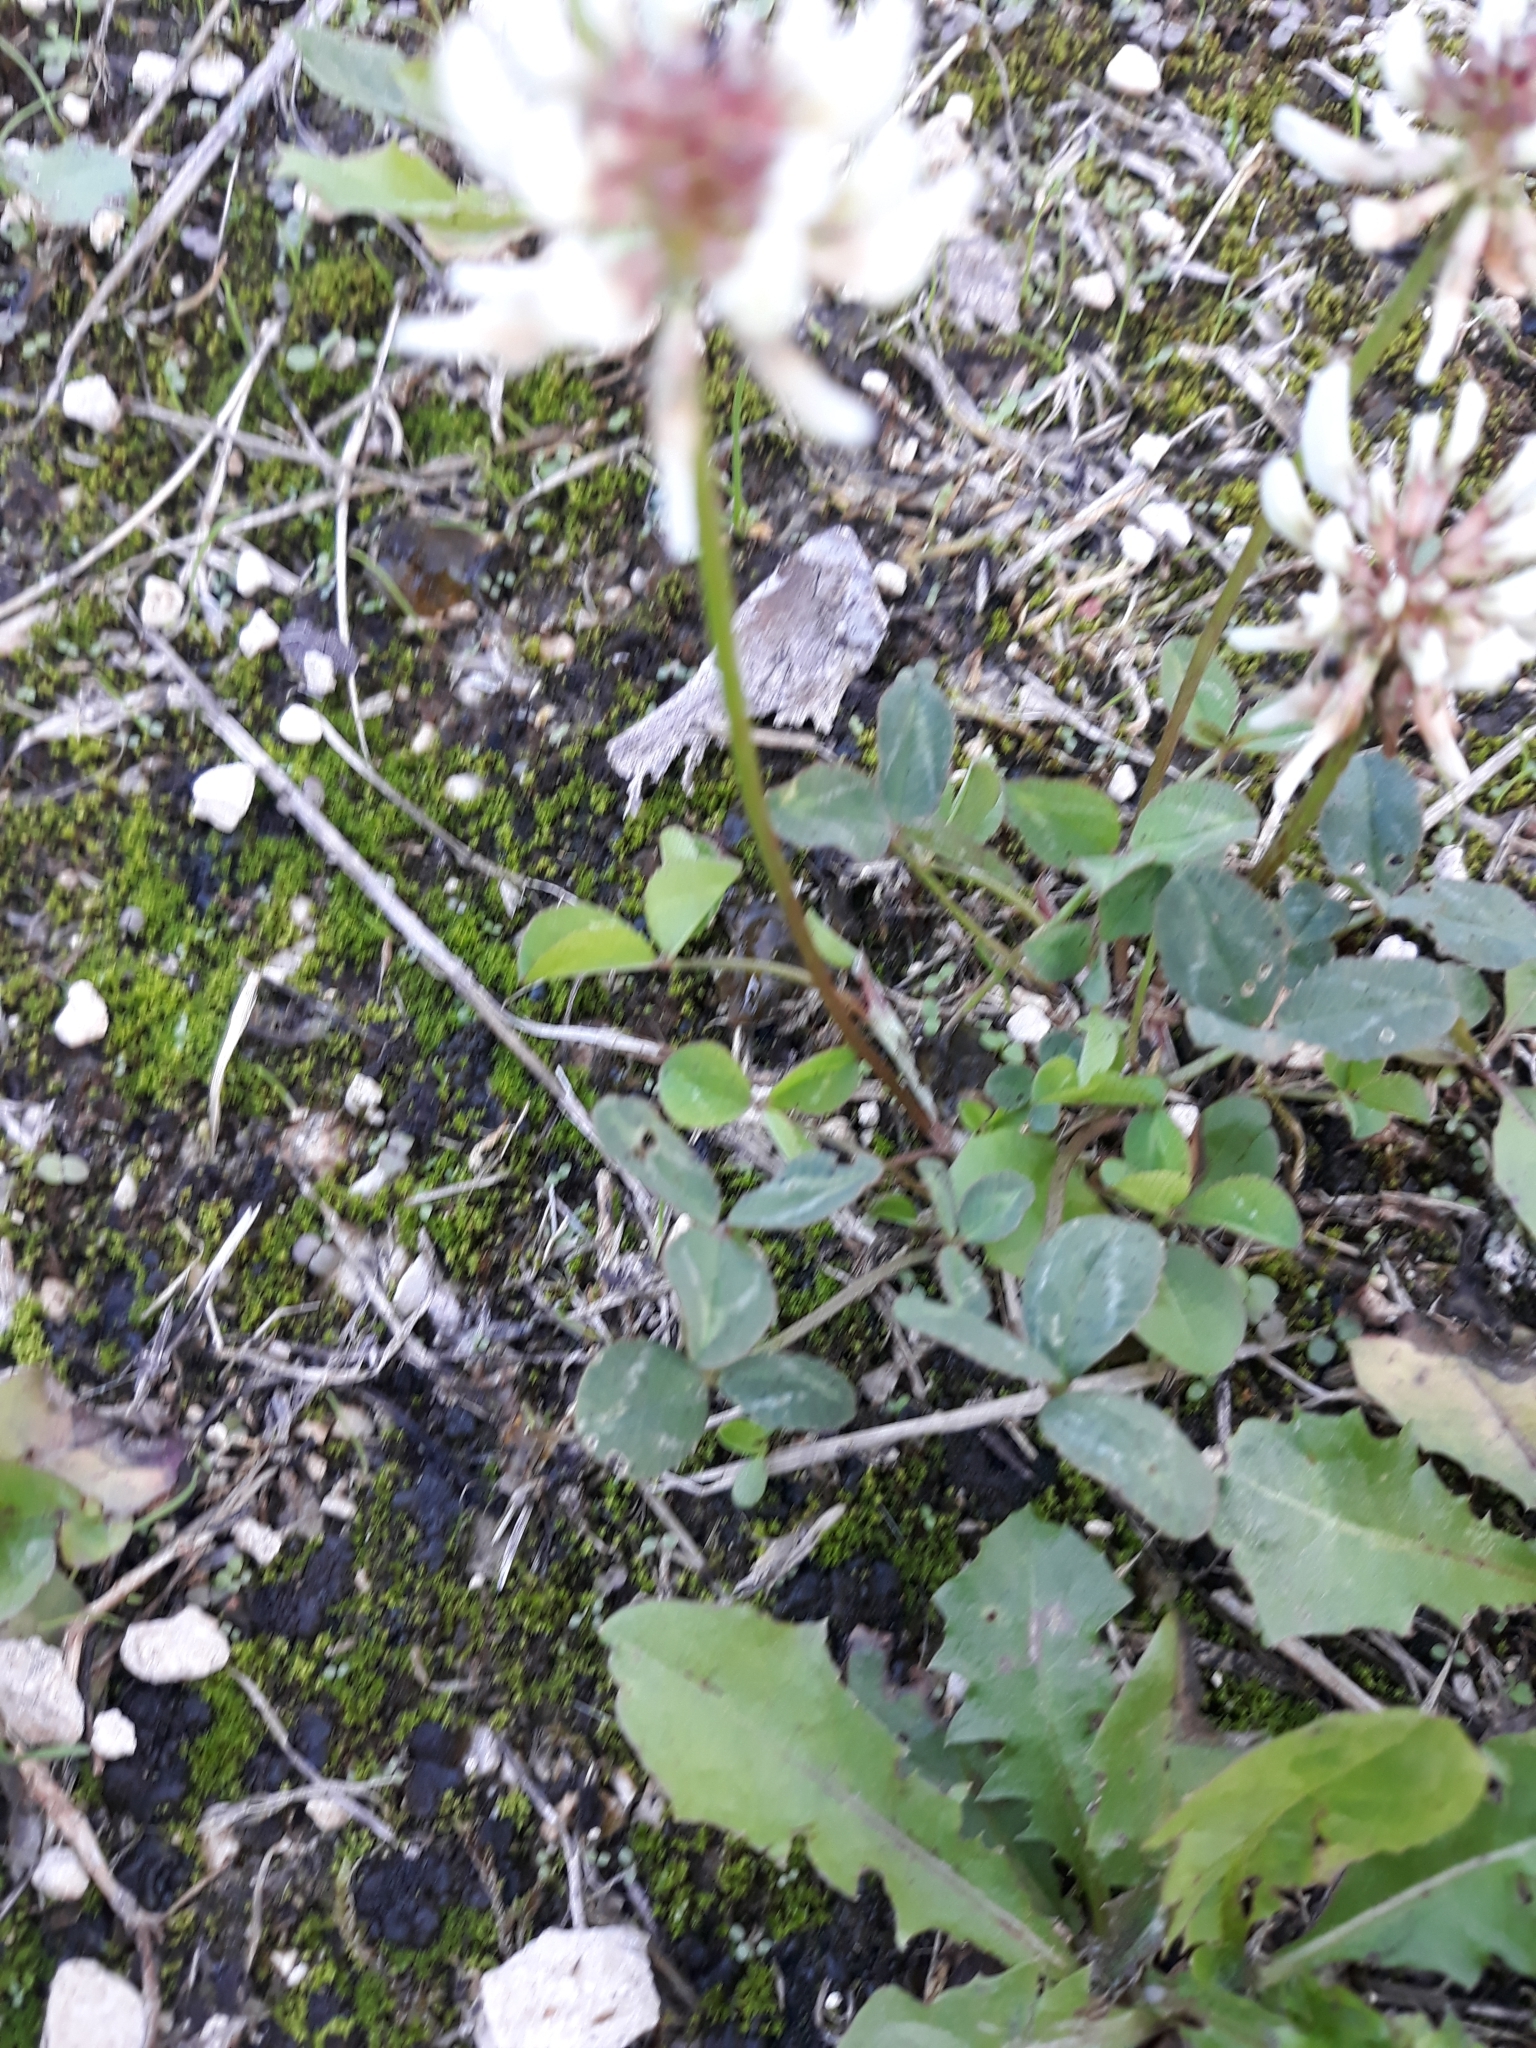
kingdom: Plantae
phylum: Tracheophyta
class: Magnoliopsida
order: Fabales
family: Fabaceae
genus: Trifolium
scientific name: Trifolium repens
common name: White clover
